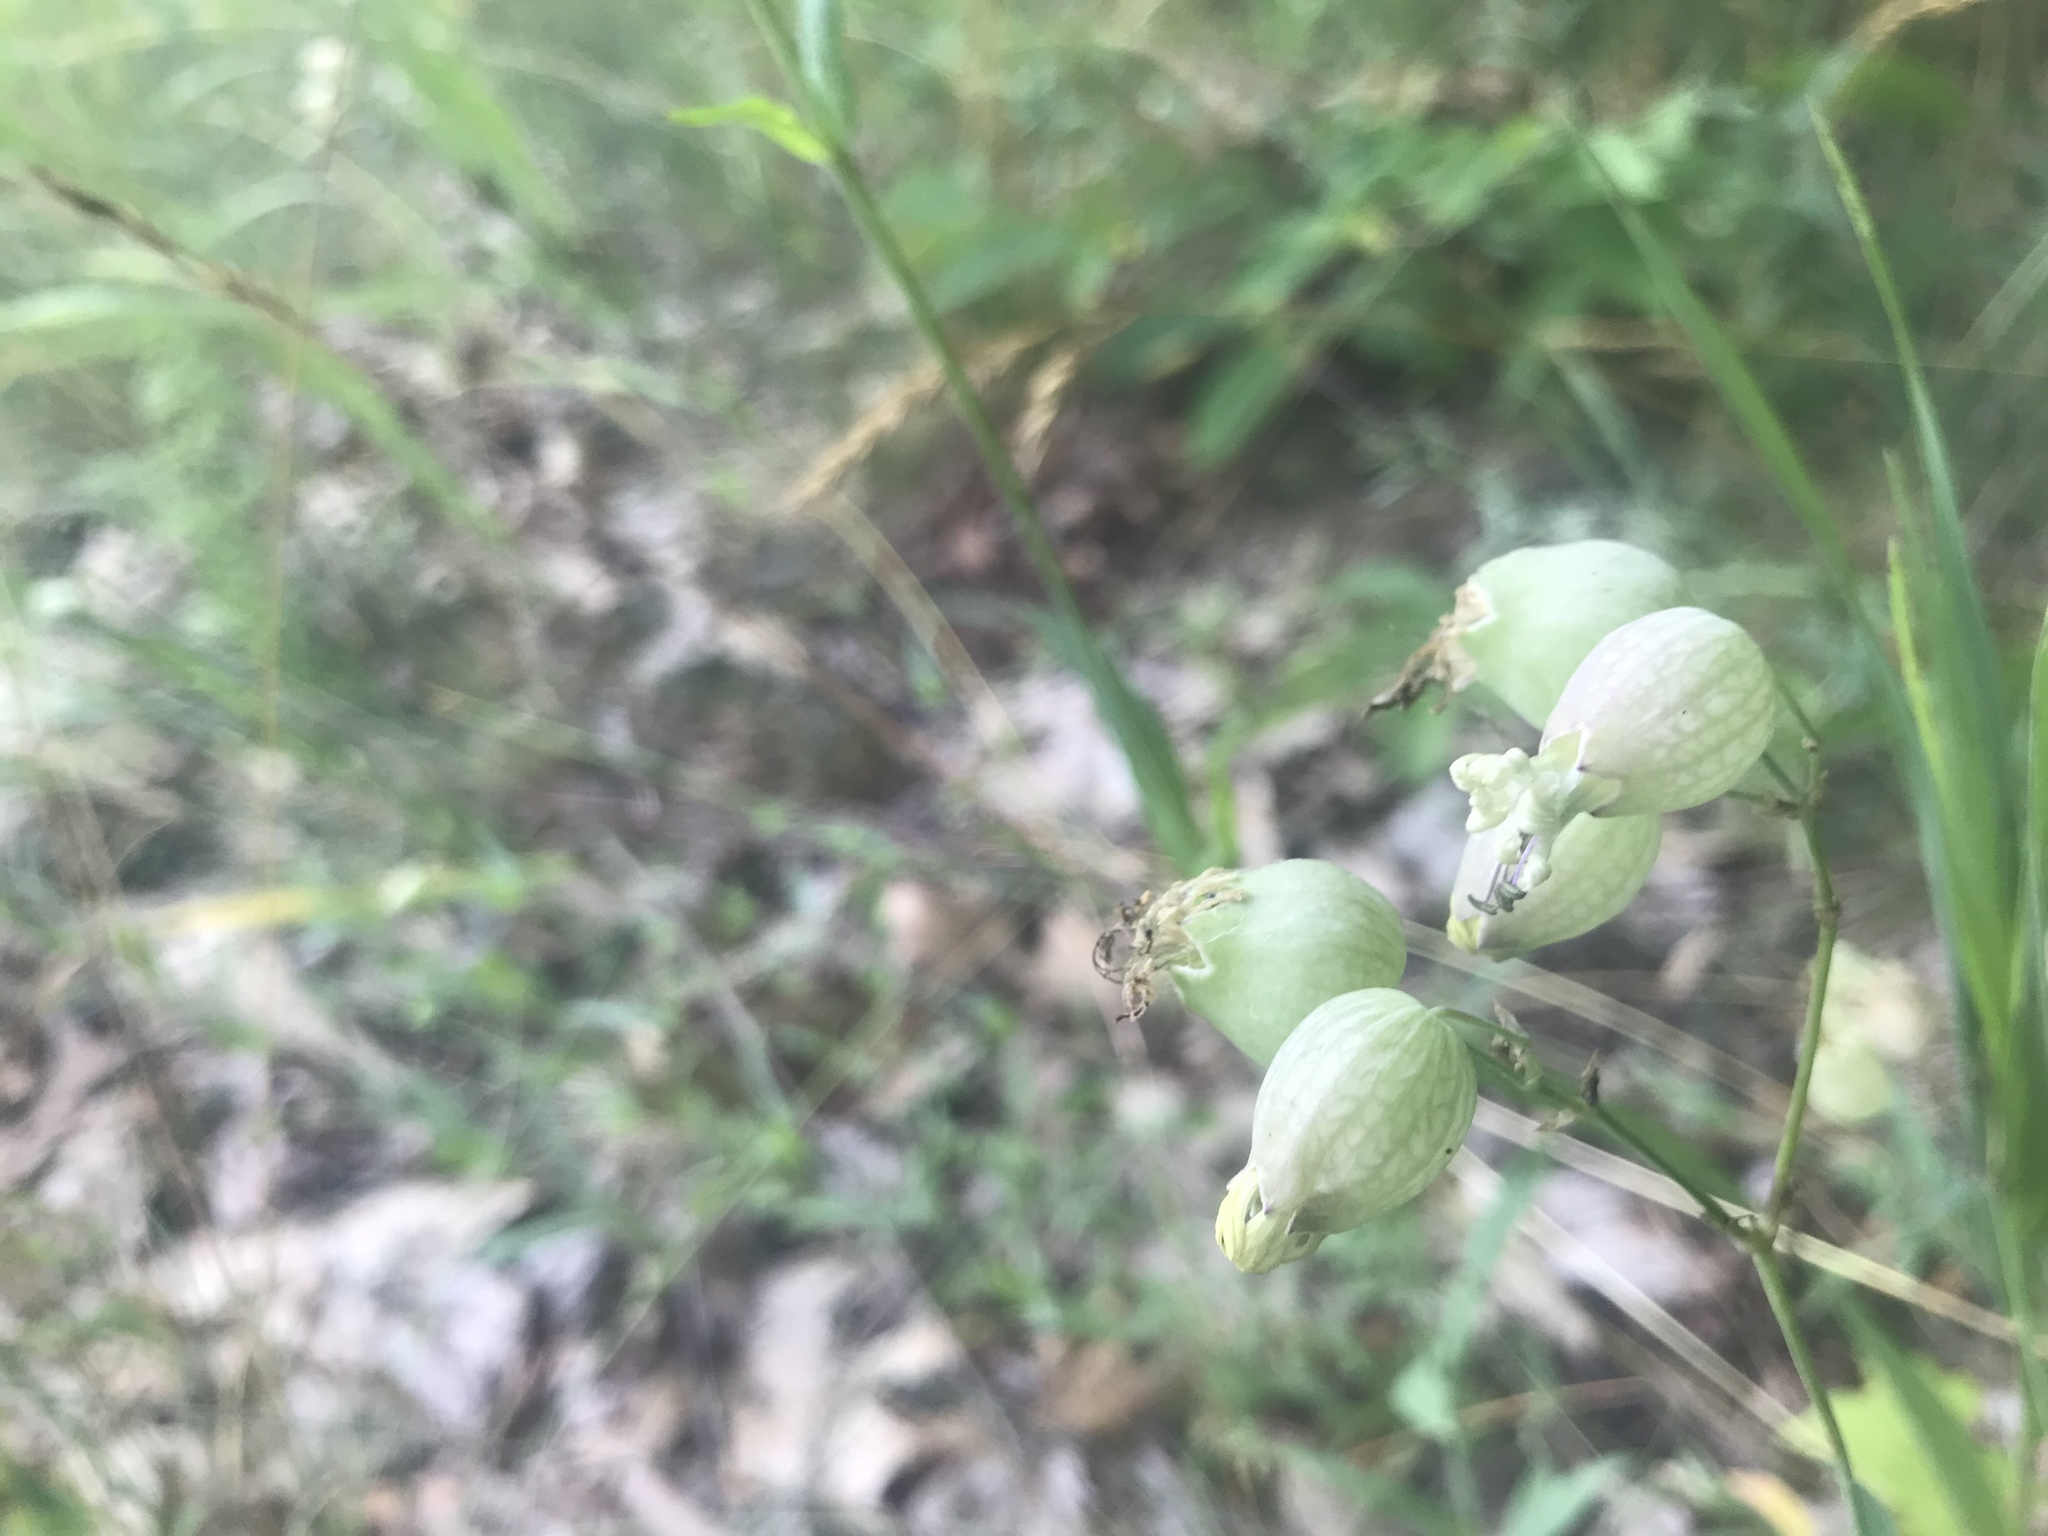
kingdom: Plantae
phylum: Tracheophyta
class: Magnoliopsida
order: Caryophyllales
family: Caryophyllaceae
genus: Silene
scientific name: Silene vulgaris
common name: Bladder campion
